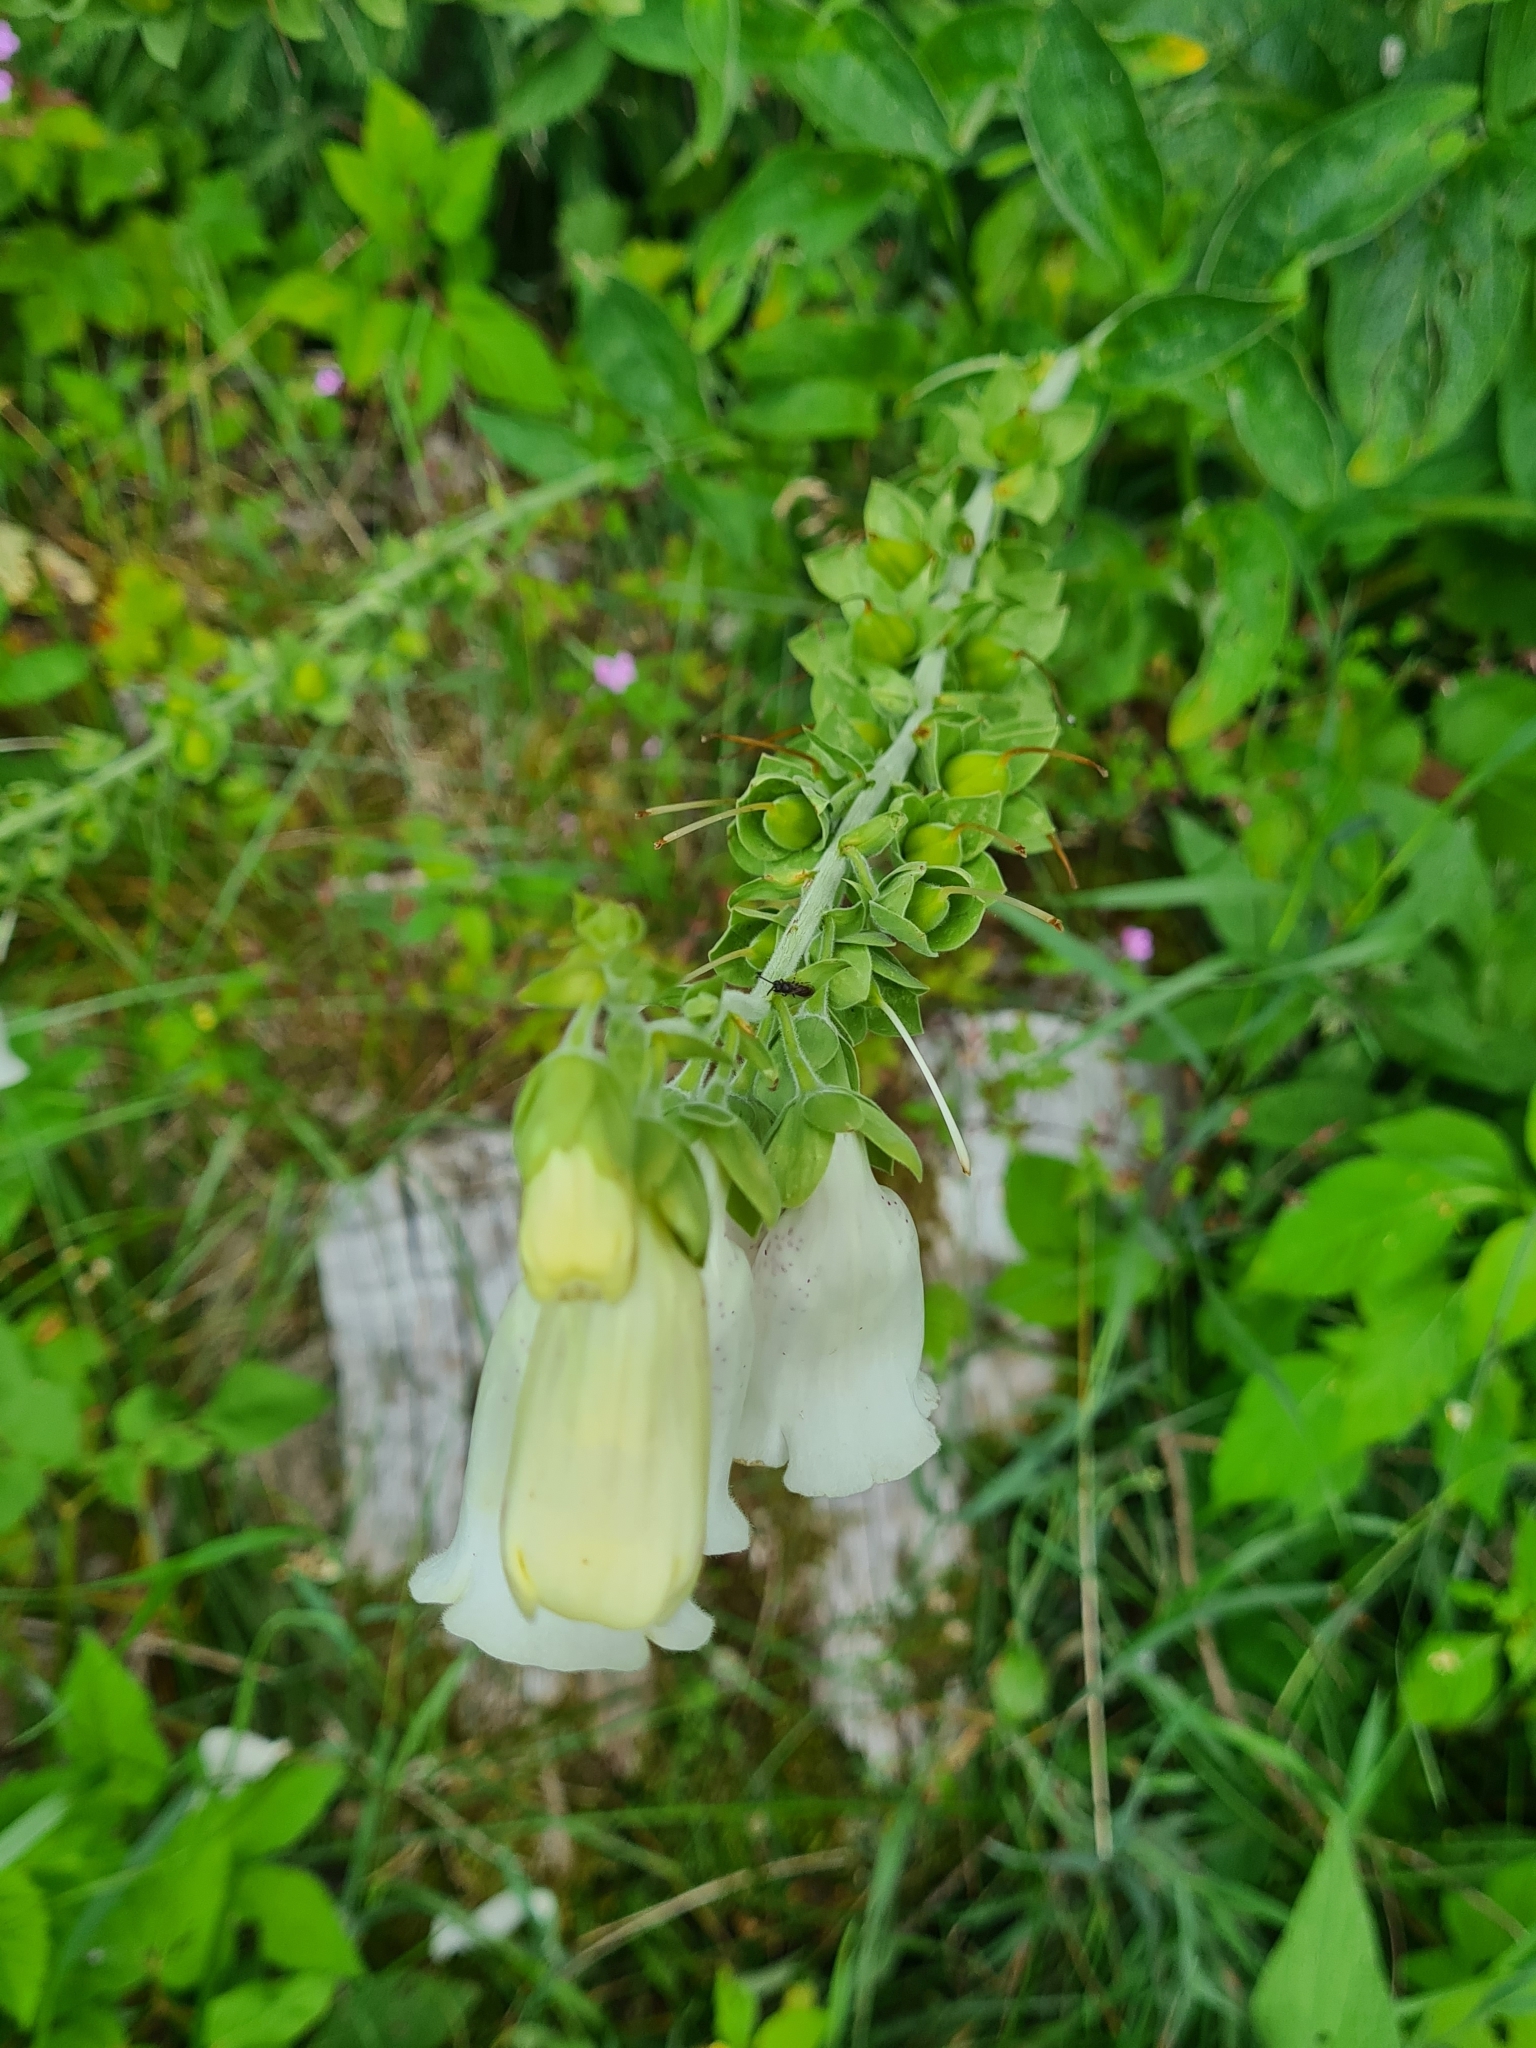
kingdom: Plantae
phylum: Tracheophyta
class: Magnoliopsida
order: Lamiales
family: Plantaginaceae
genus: Digitalis
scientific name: Digitalis purpurea
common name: Foxglove
